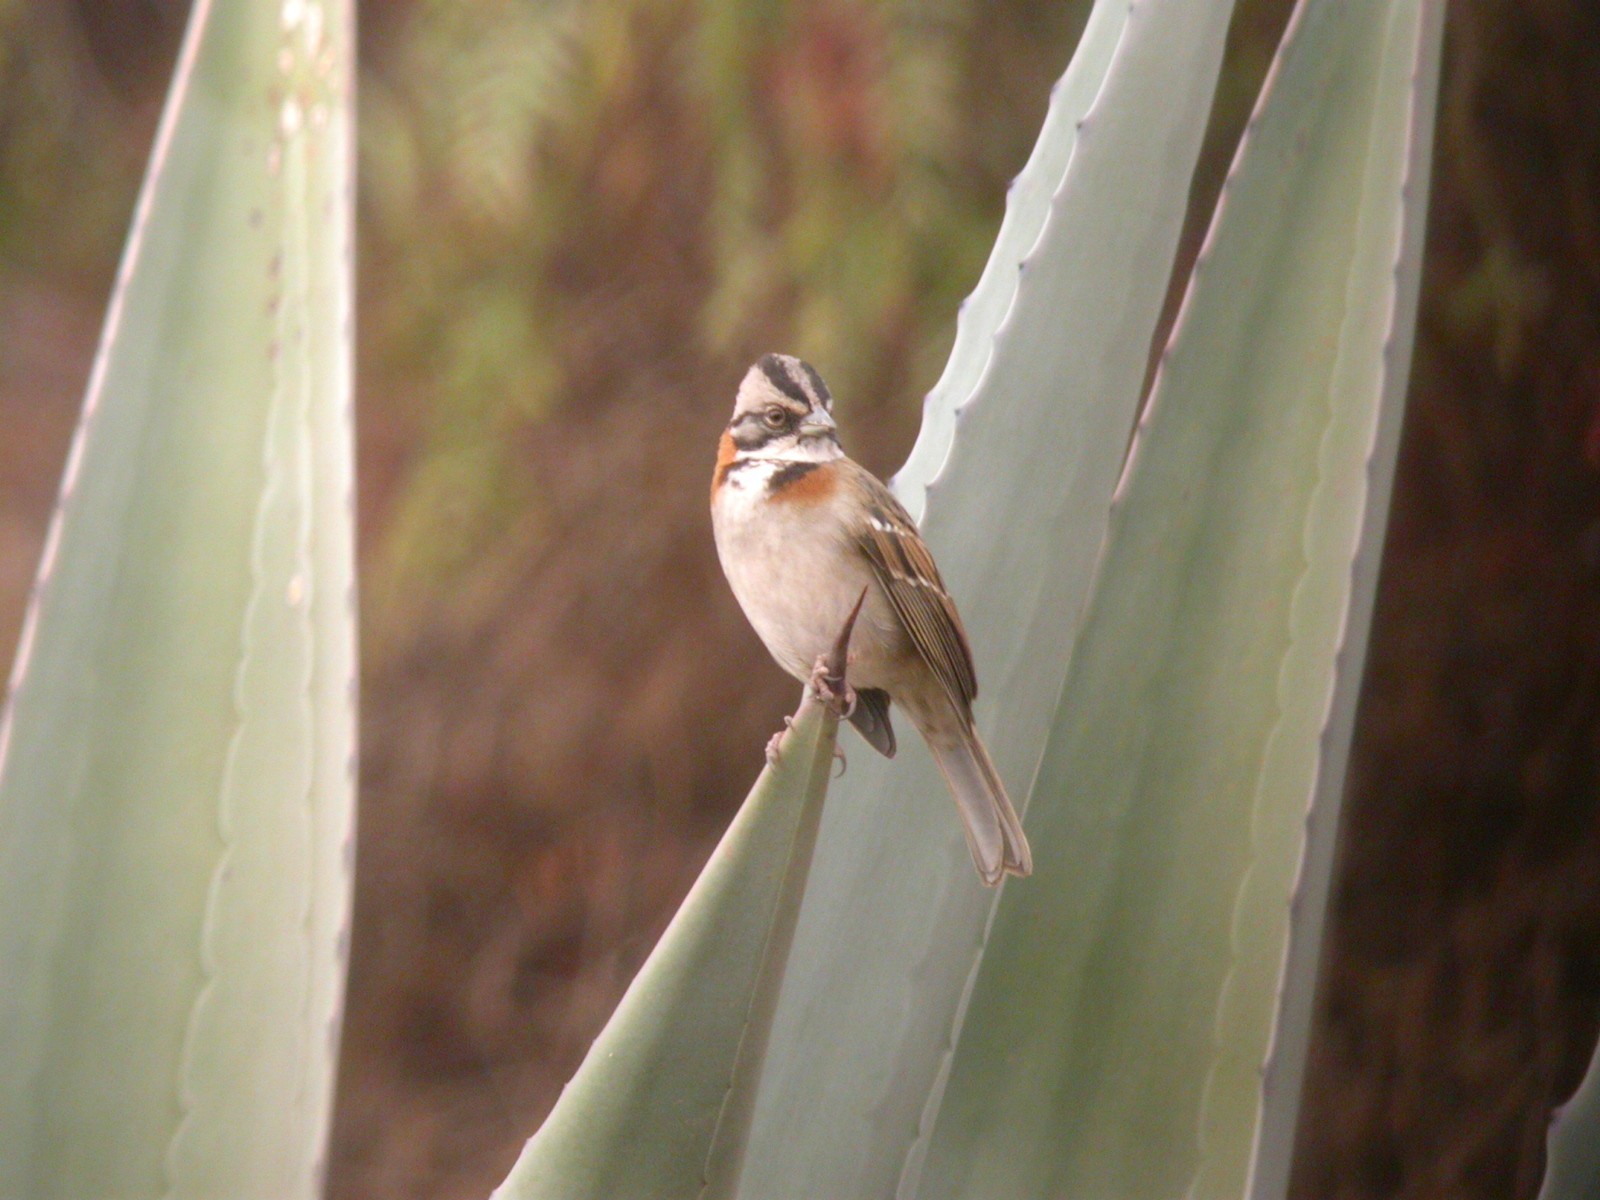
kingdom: Animalia
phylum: Chordata
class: Aves
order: Passeriformes
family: Passerellidae
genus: Zonotrichia
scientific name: Zonotrichia capensis
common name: Rufous-collared sparrow
